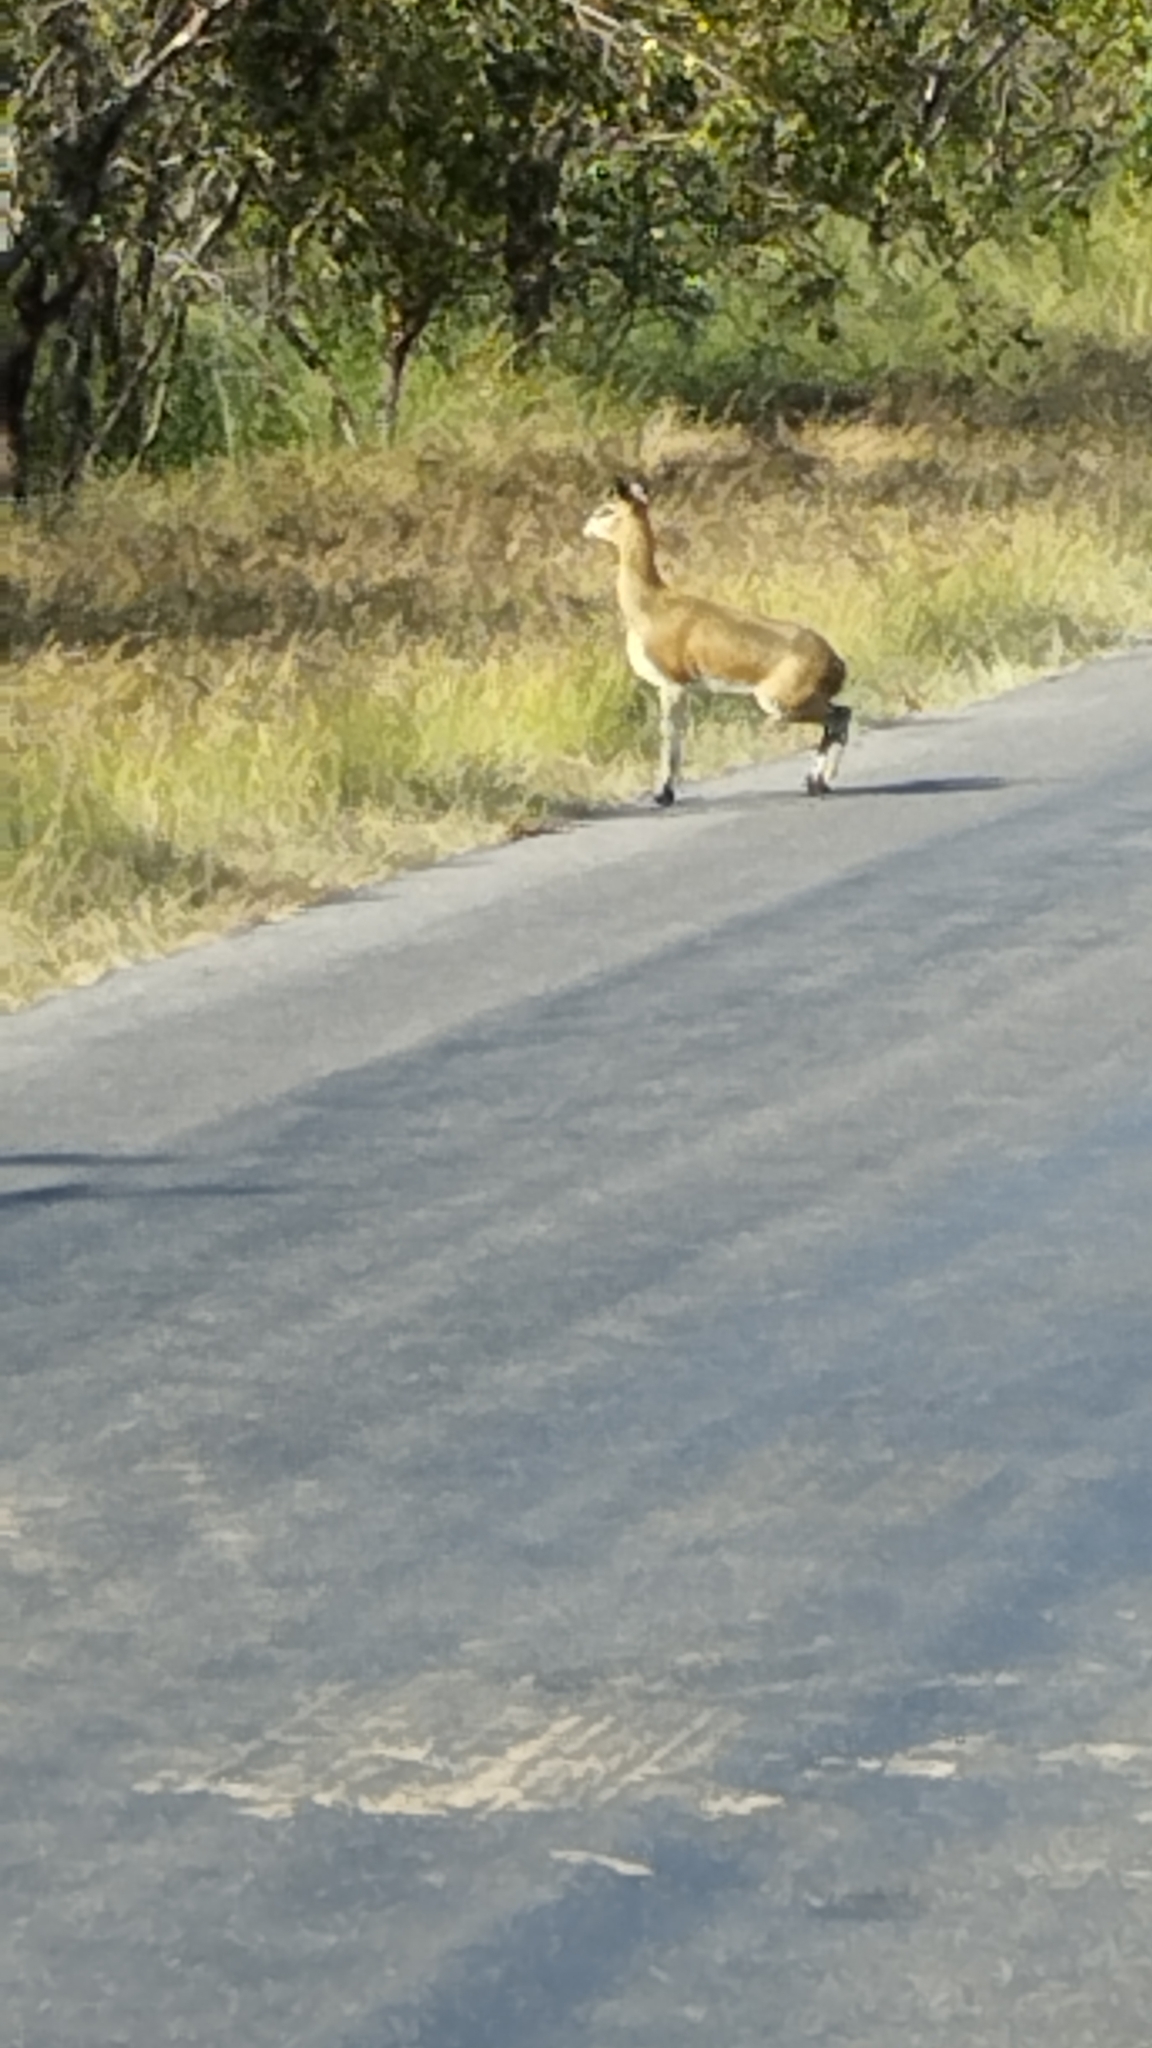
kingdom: Animalia
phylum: Chordata
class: Mammalia
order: Artiodactyla
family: Bovidae
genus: Oreotragus
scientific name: Oreotragus oreotragus
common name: Klipspringer
